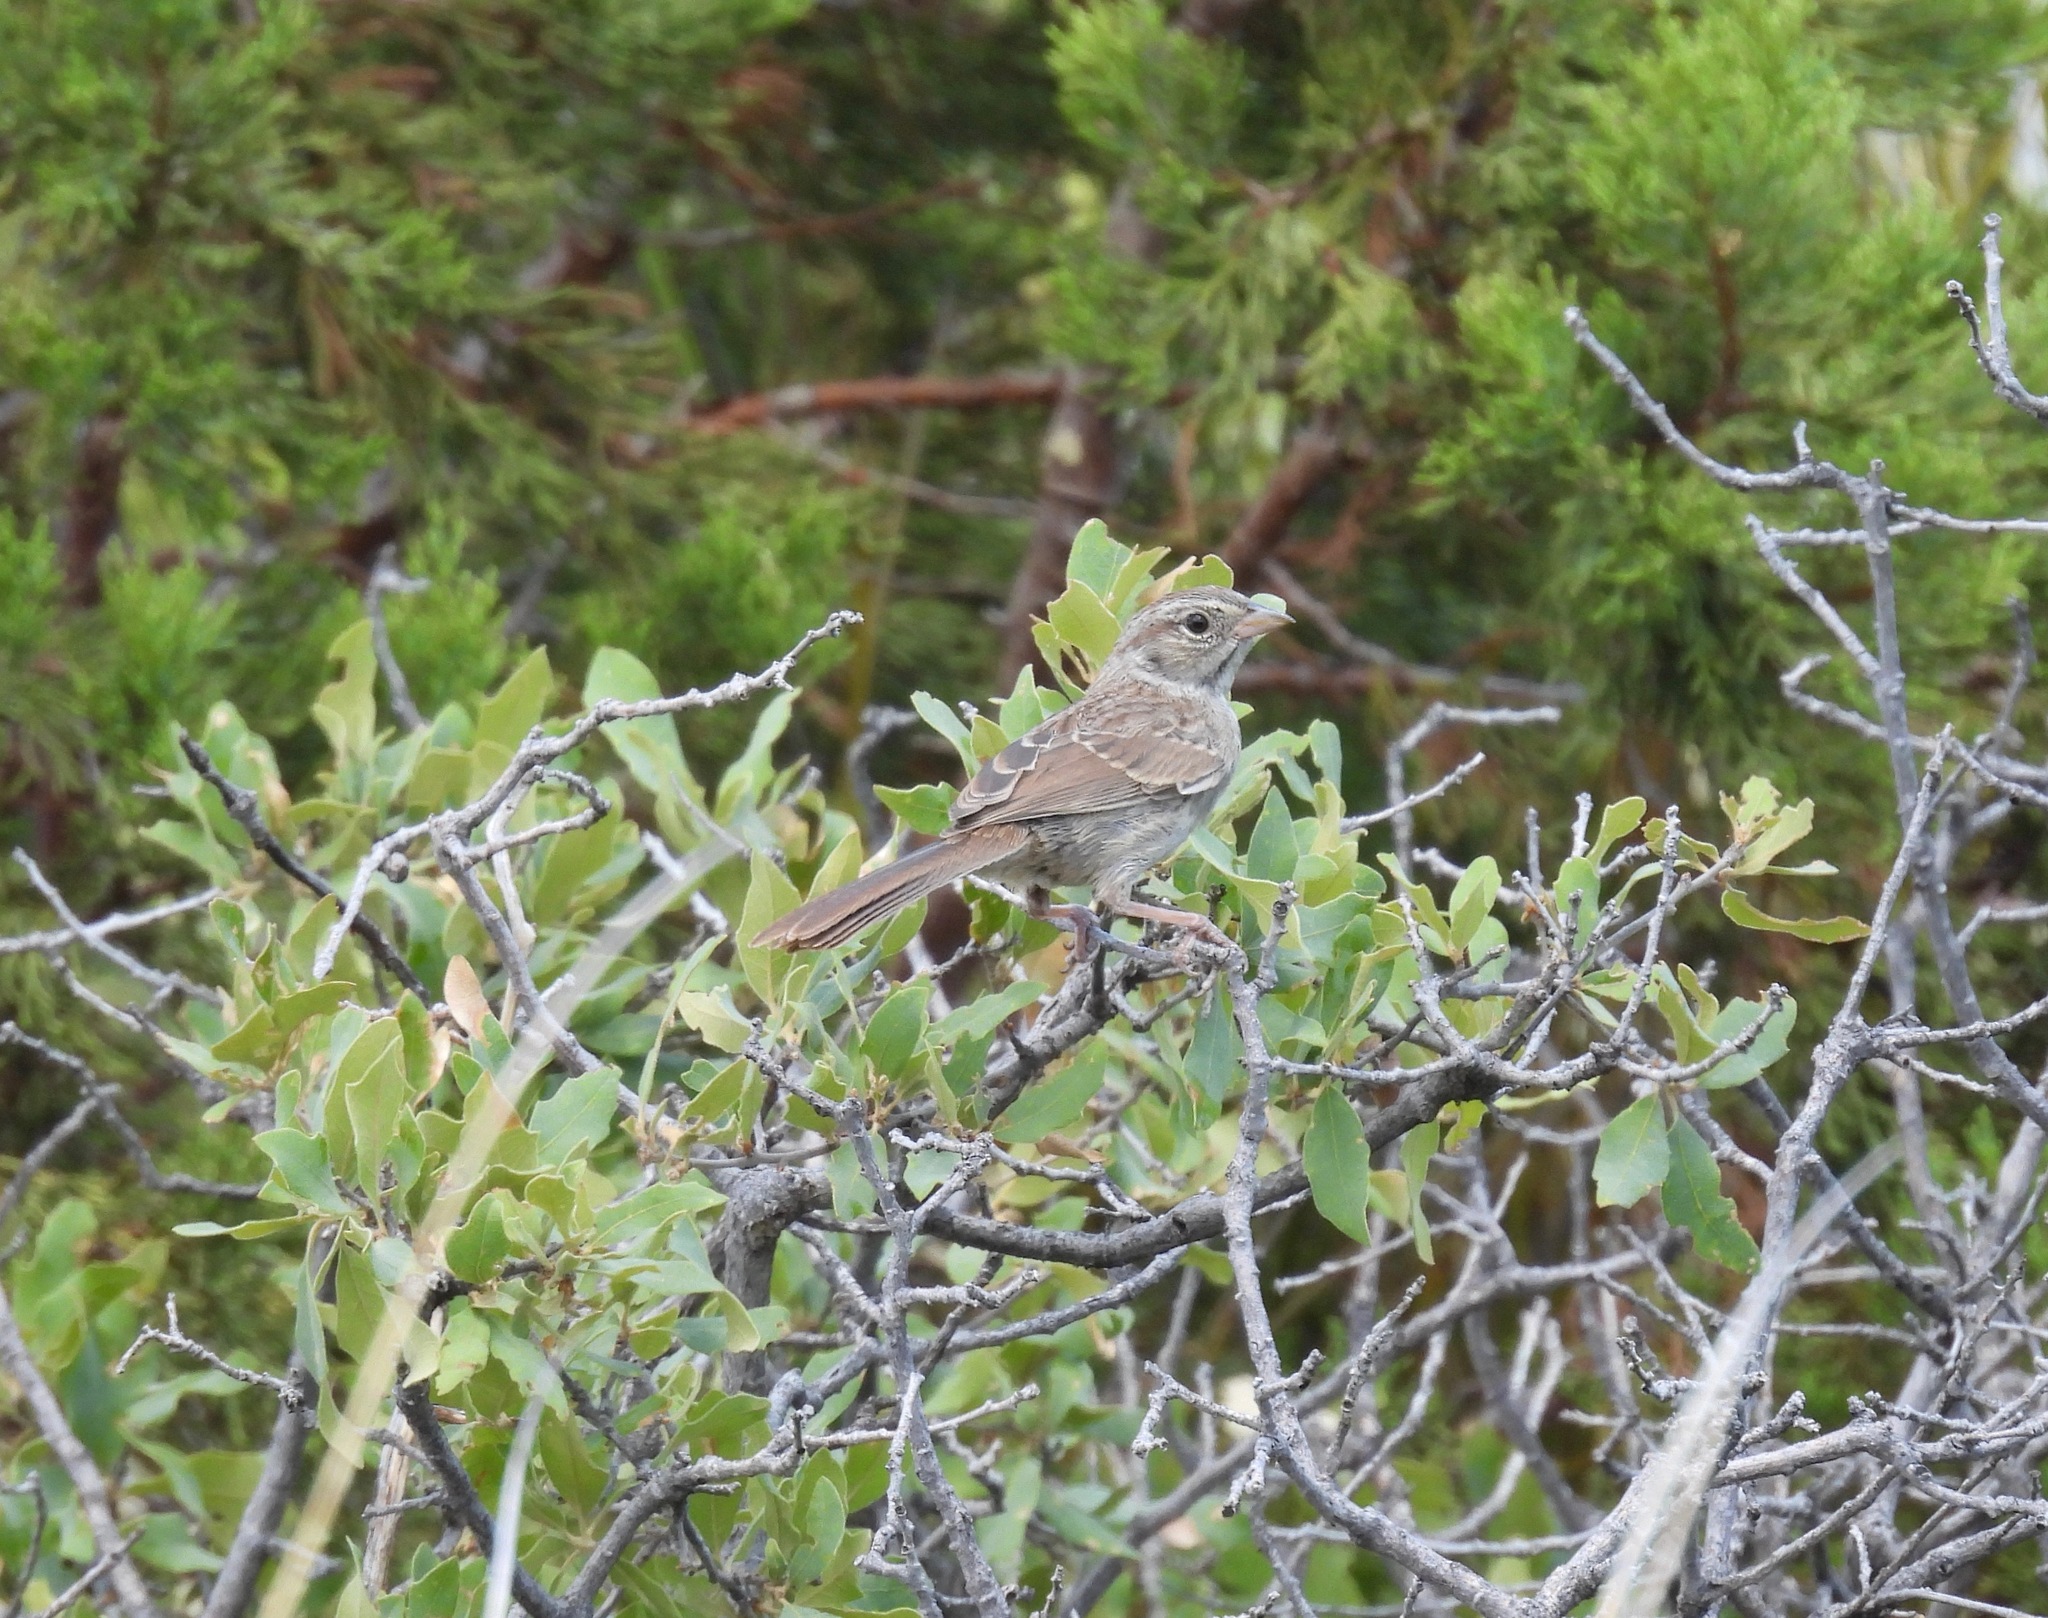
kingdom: Animalia
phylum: Chordata
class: Aves
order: Passeriformes
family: Passerellidae
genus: Aimophila
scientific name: Aimophila ruficeps
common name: Rufous-crowned sparrow
